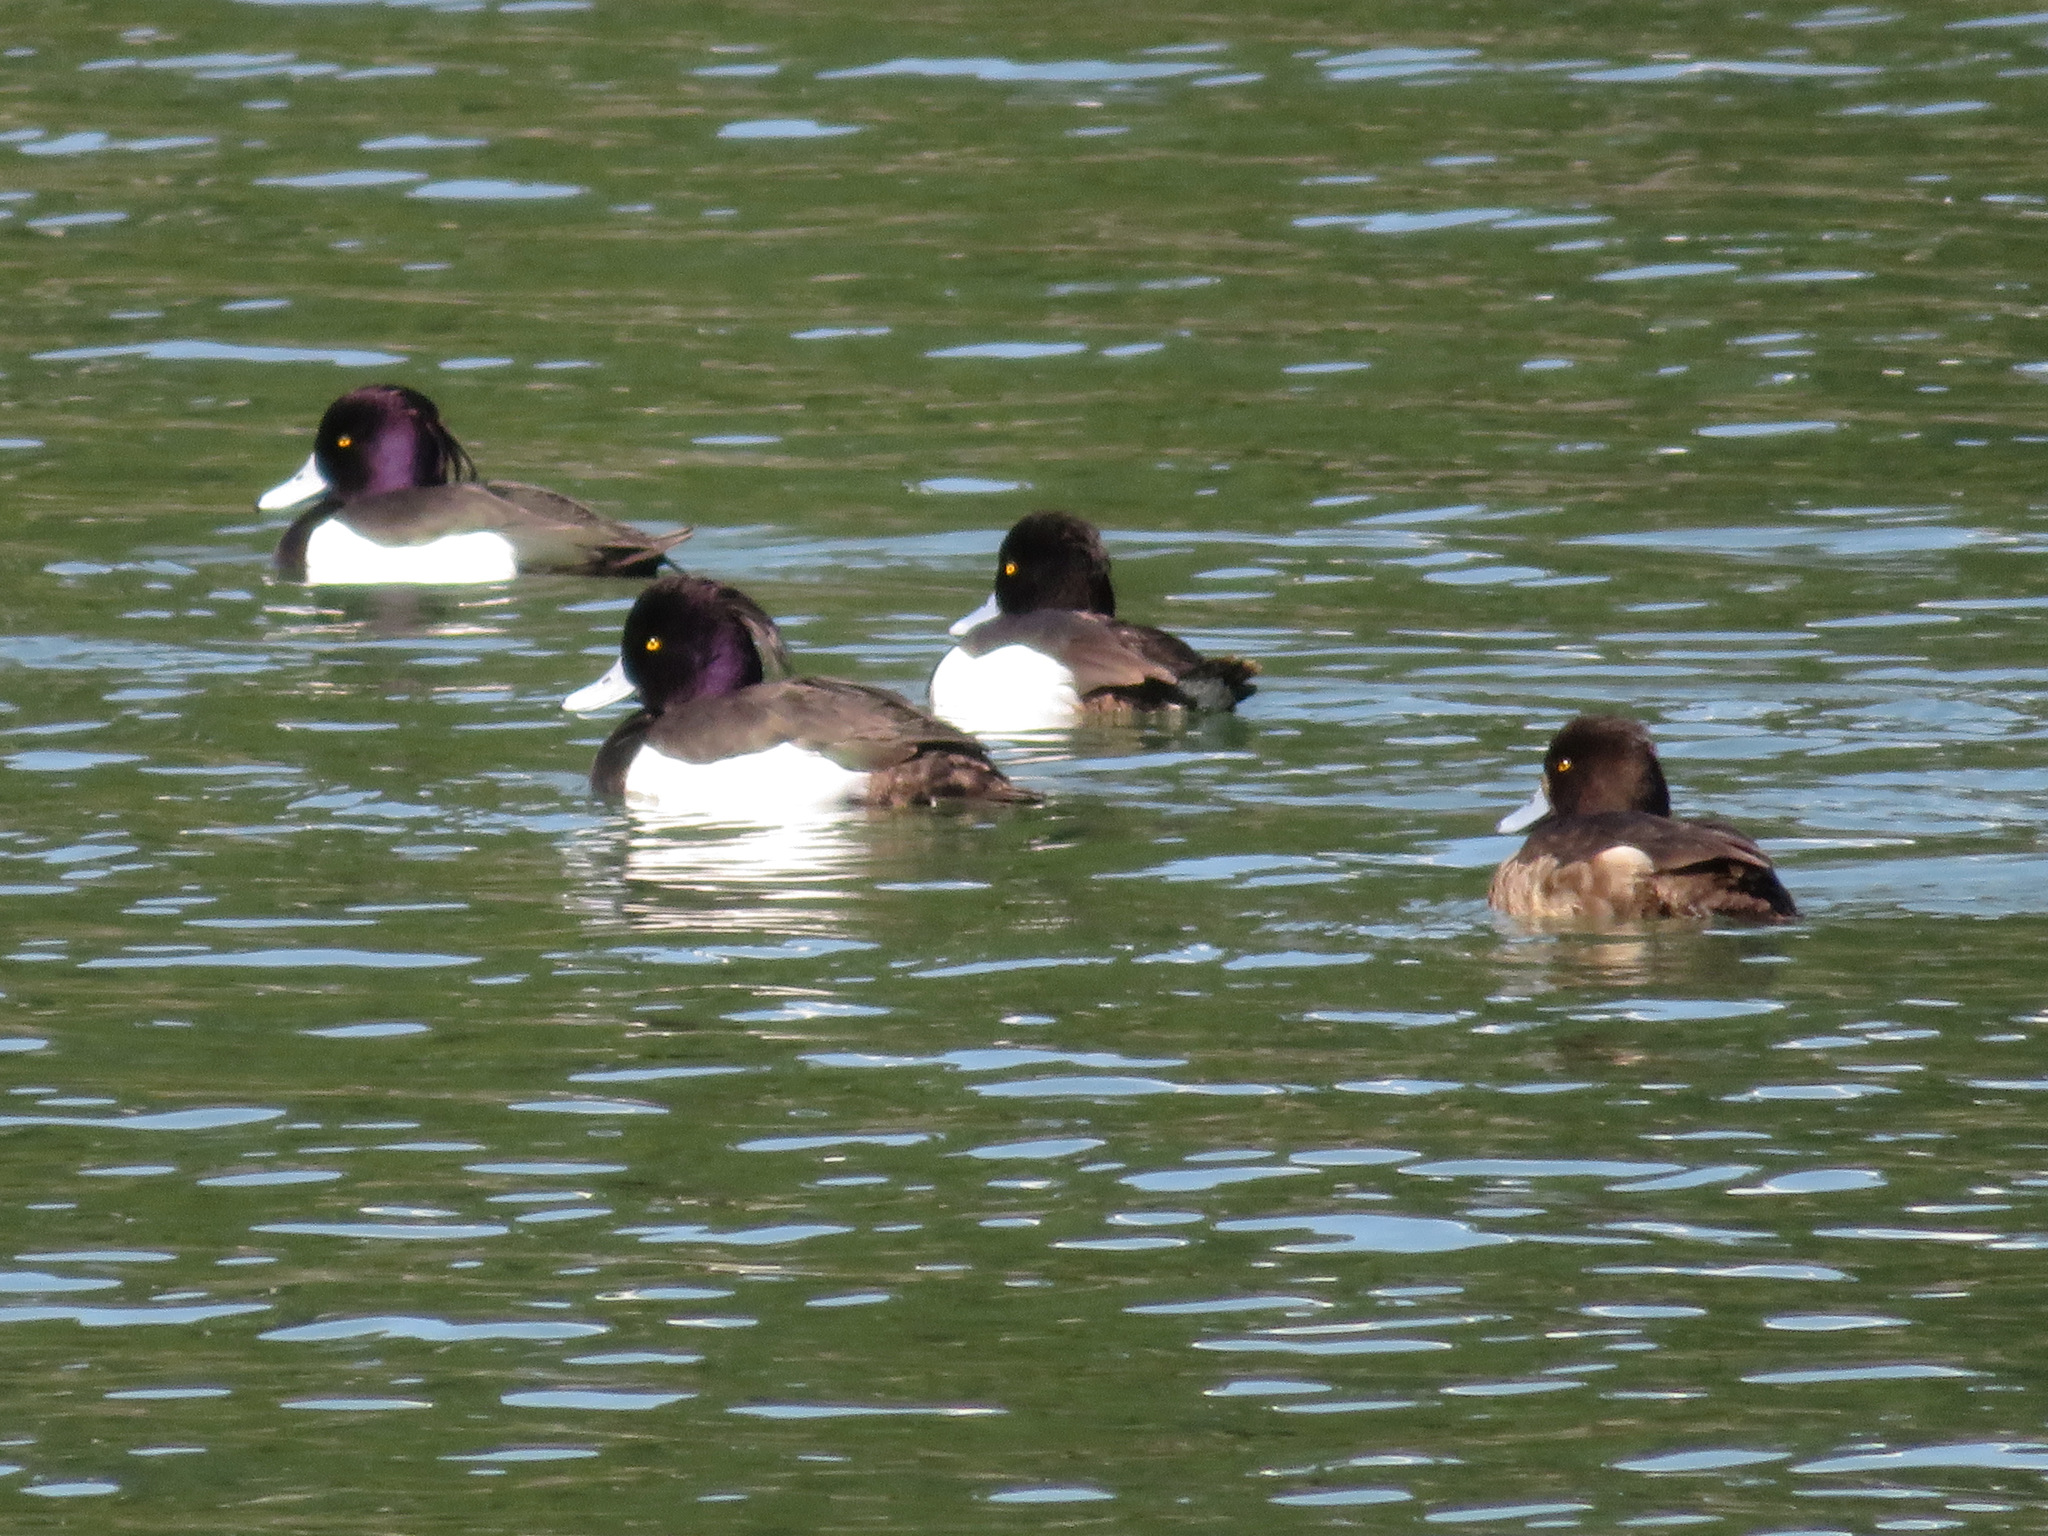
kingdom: Animalia
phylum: Chordata
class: Aves
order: Anseriformes
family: Anatidae
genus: Aythya
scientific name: Aythya fuligula
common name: Tufted duck
